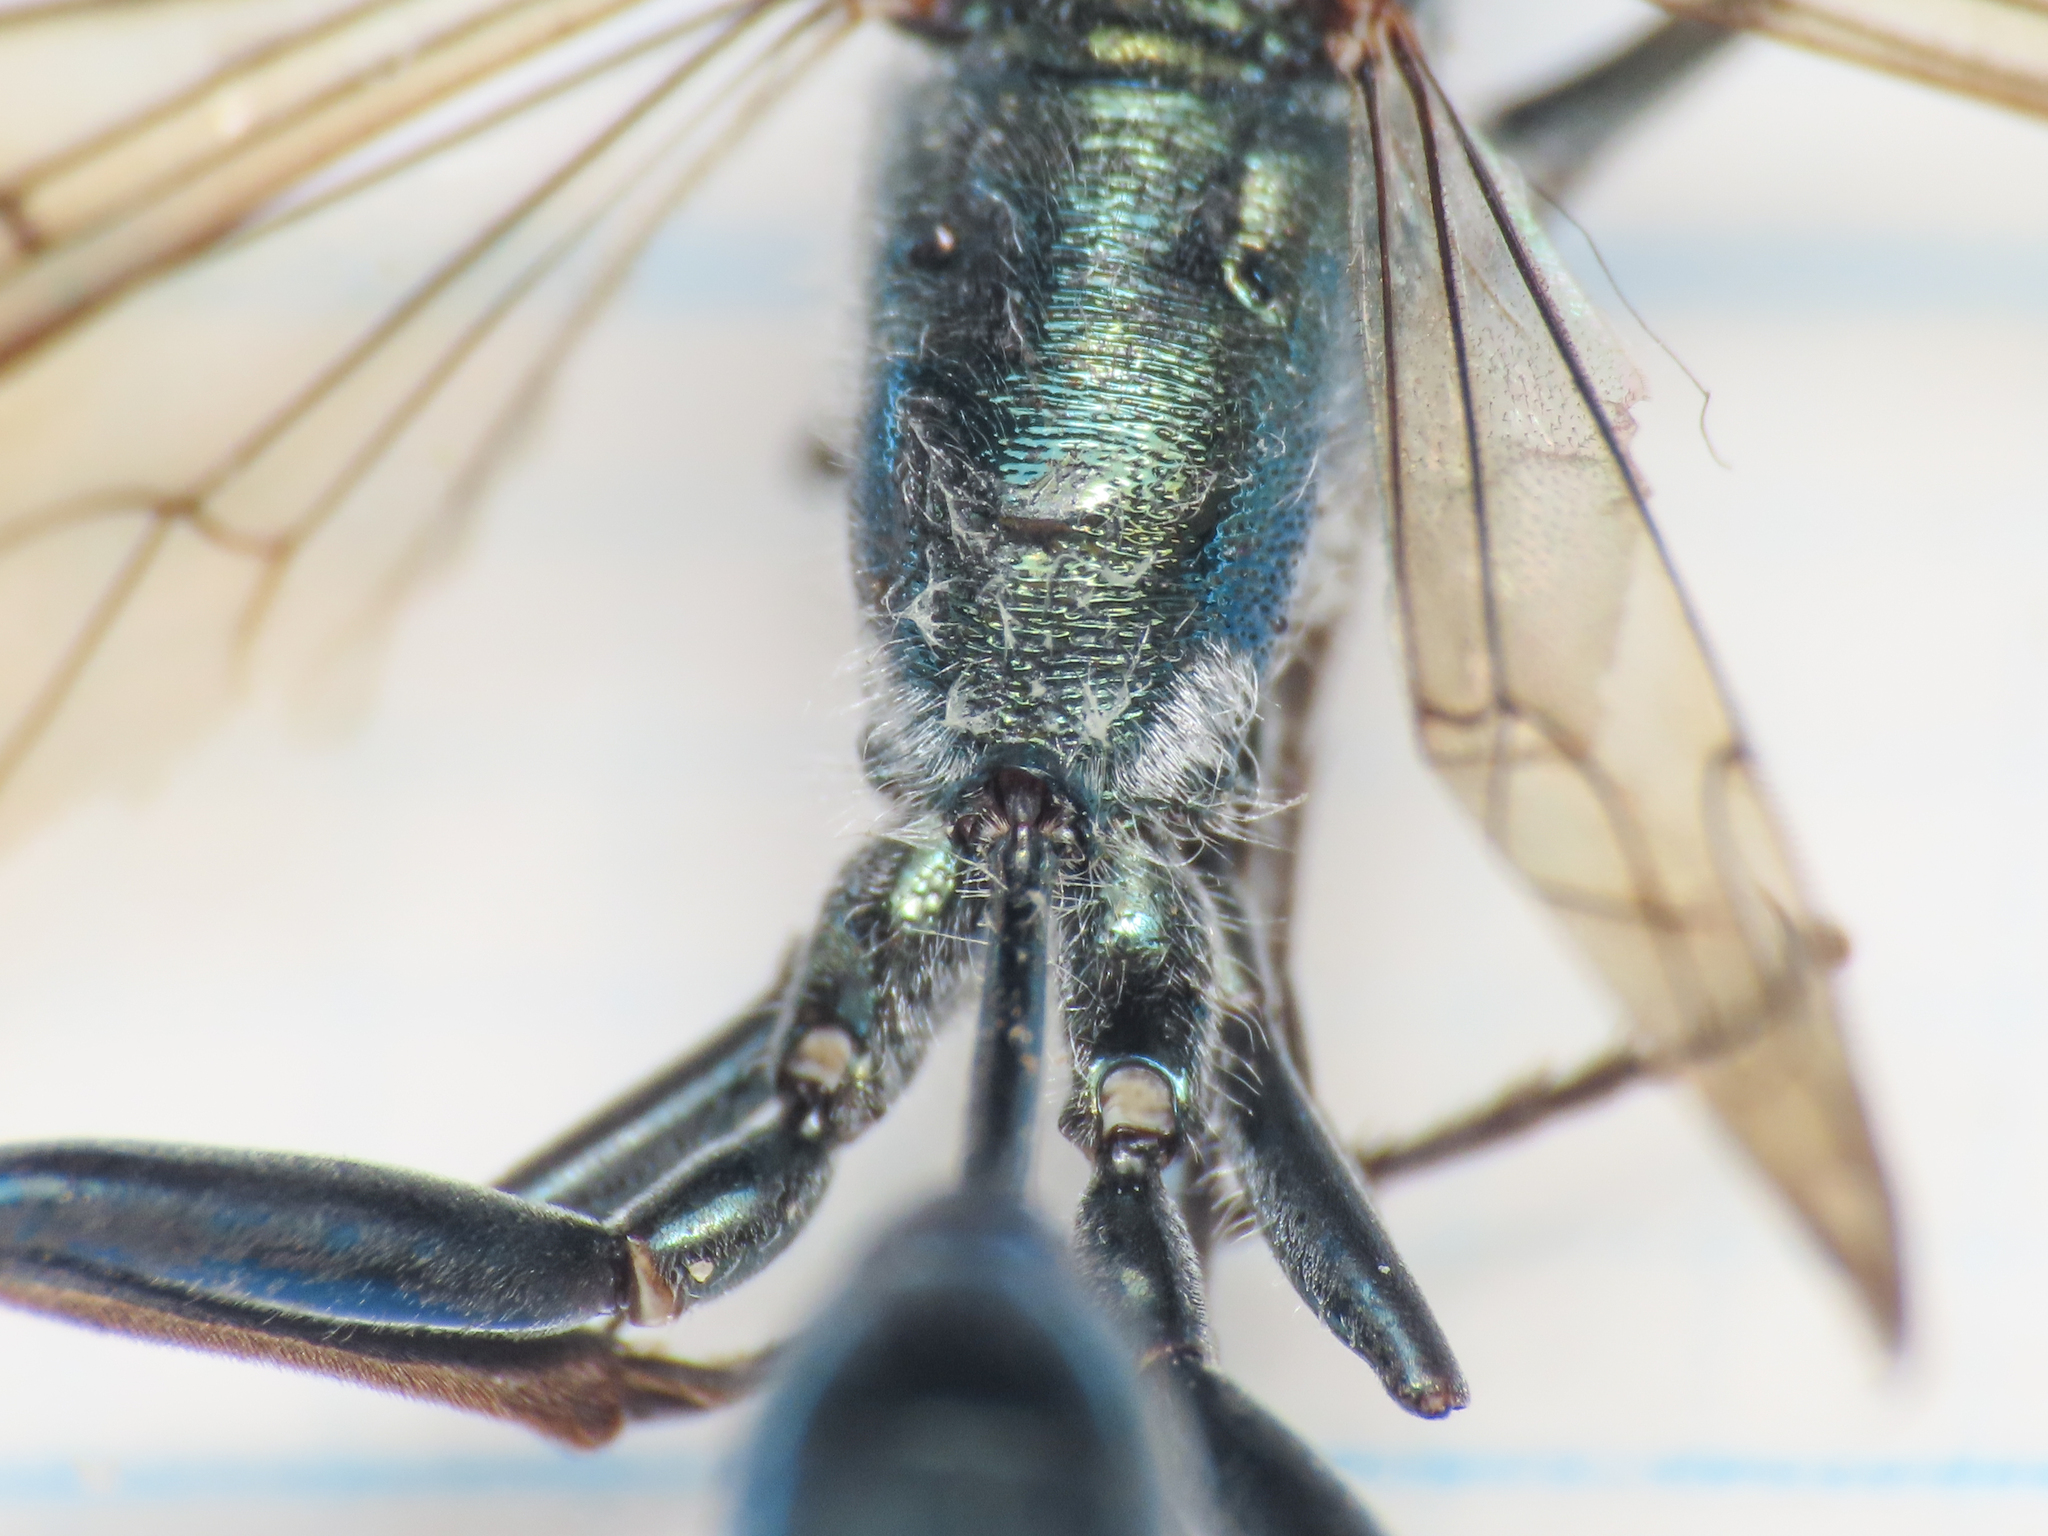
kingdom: Animalia
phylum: Arthropoda
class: Insecta
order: Hymenoptera
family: Sphecidae
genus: Chalybion
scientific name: Chalybion bengalense
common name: Mud dauber
